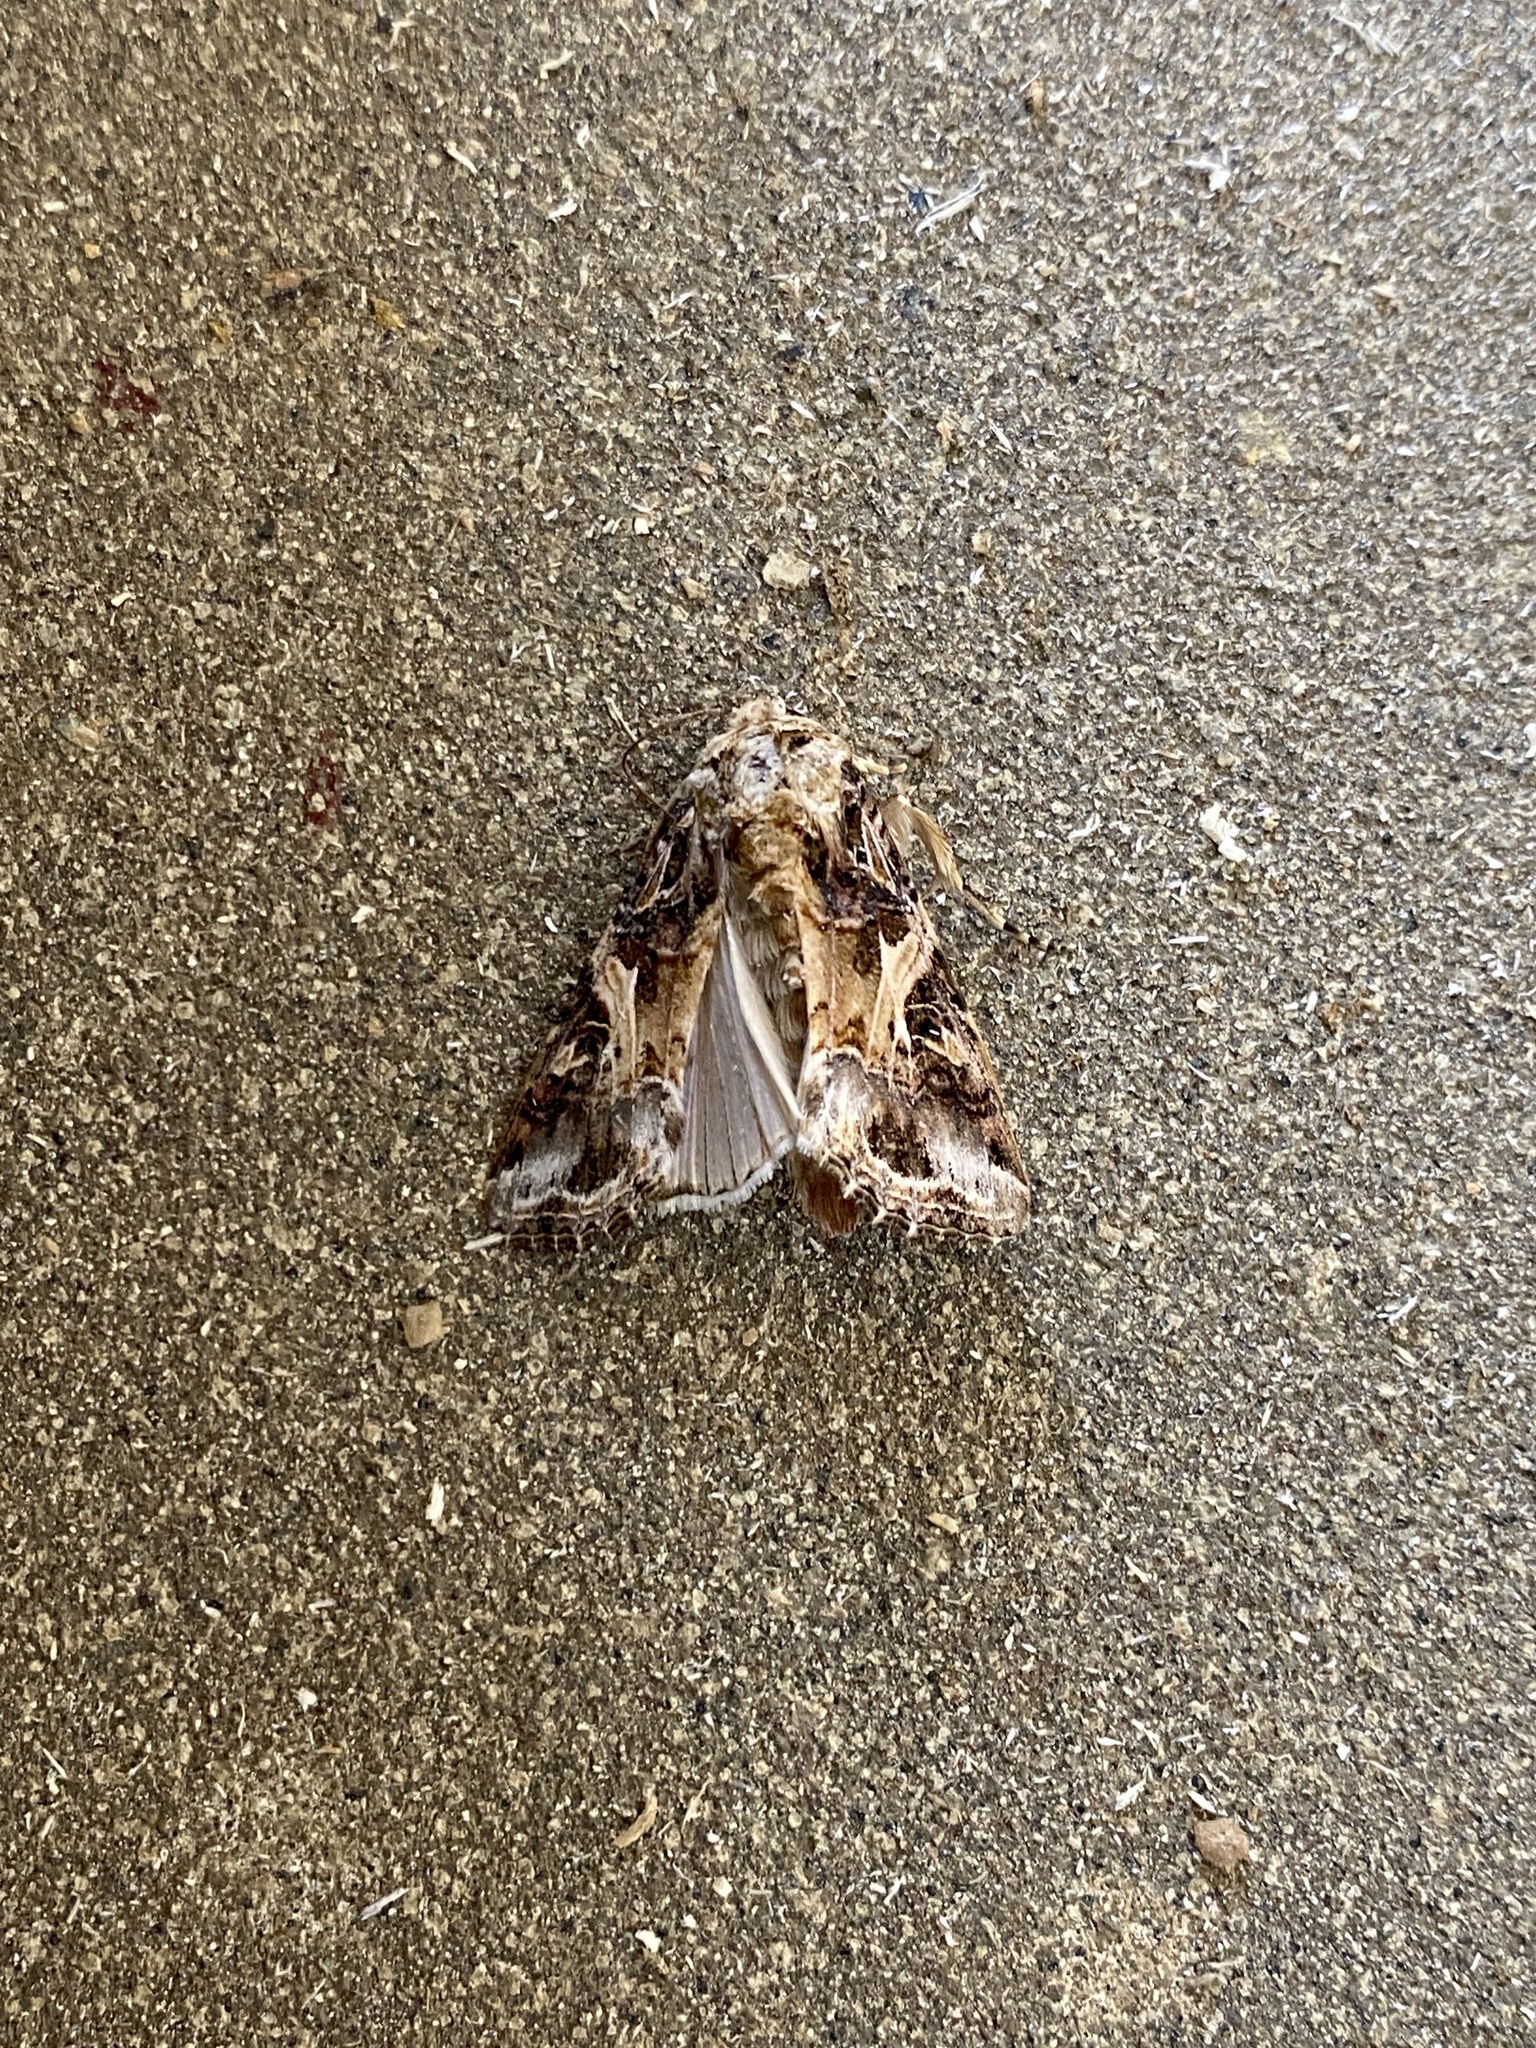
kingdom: Animalia
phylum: Arthropoda
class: Insecta
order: Lepidoptera
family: Noctuidae
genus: Spodoptera
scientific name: Spodoptera ornithogalli
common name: Yellow-striped armyworm
